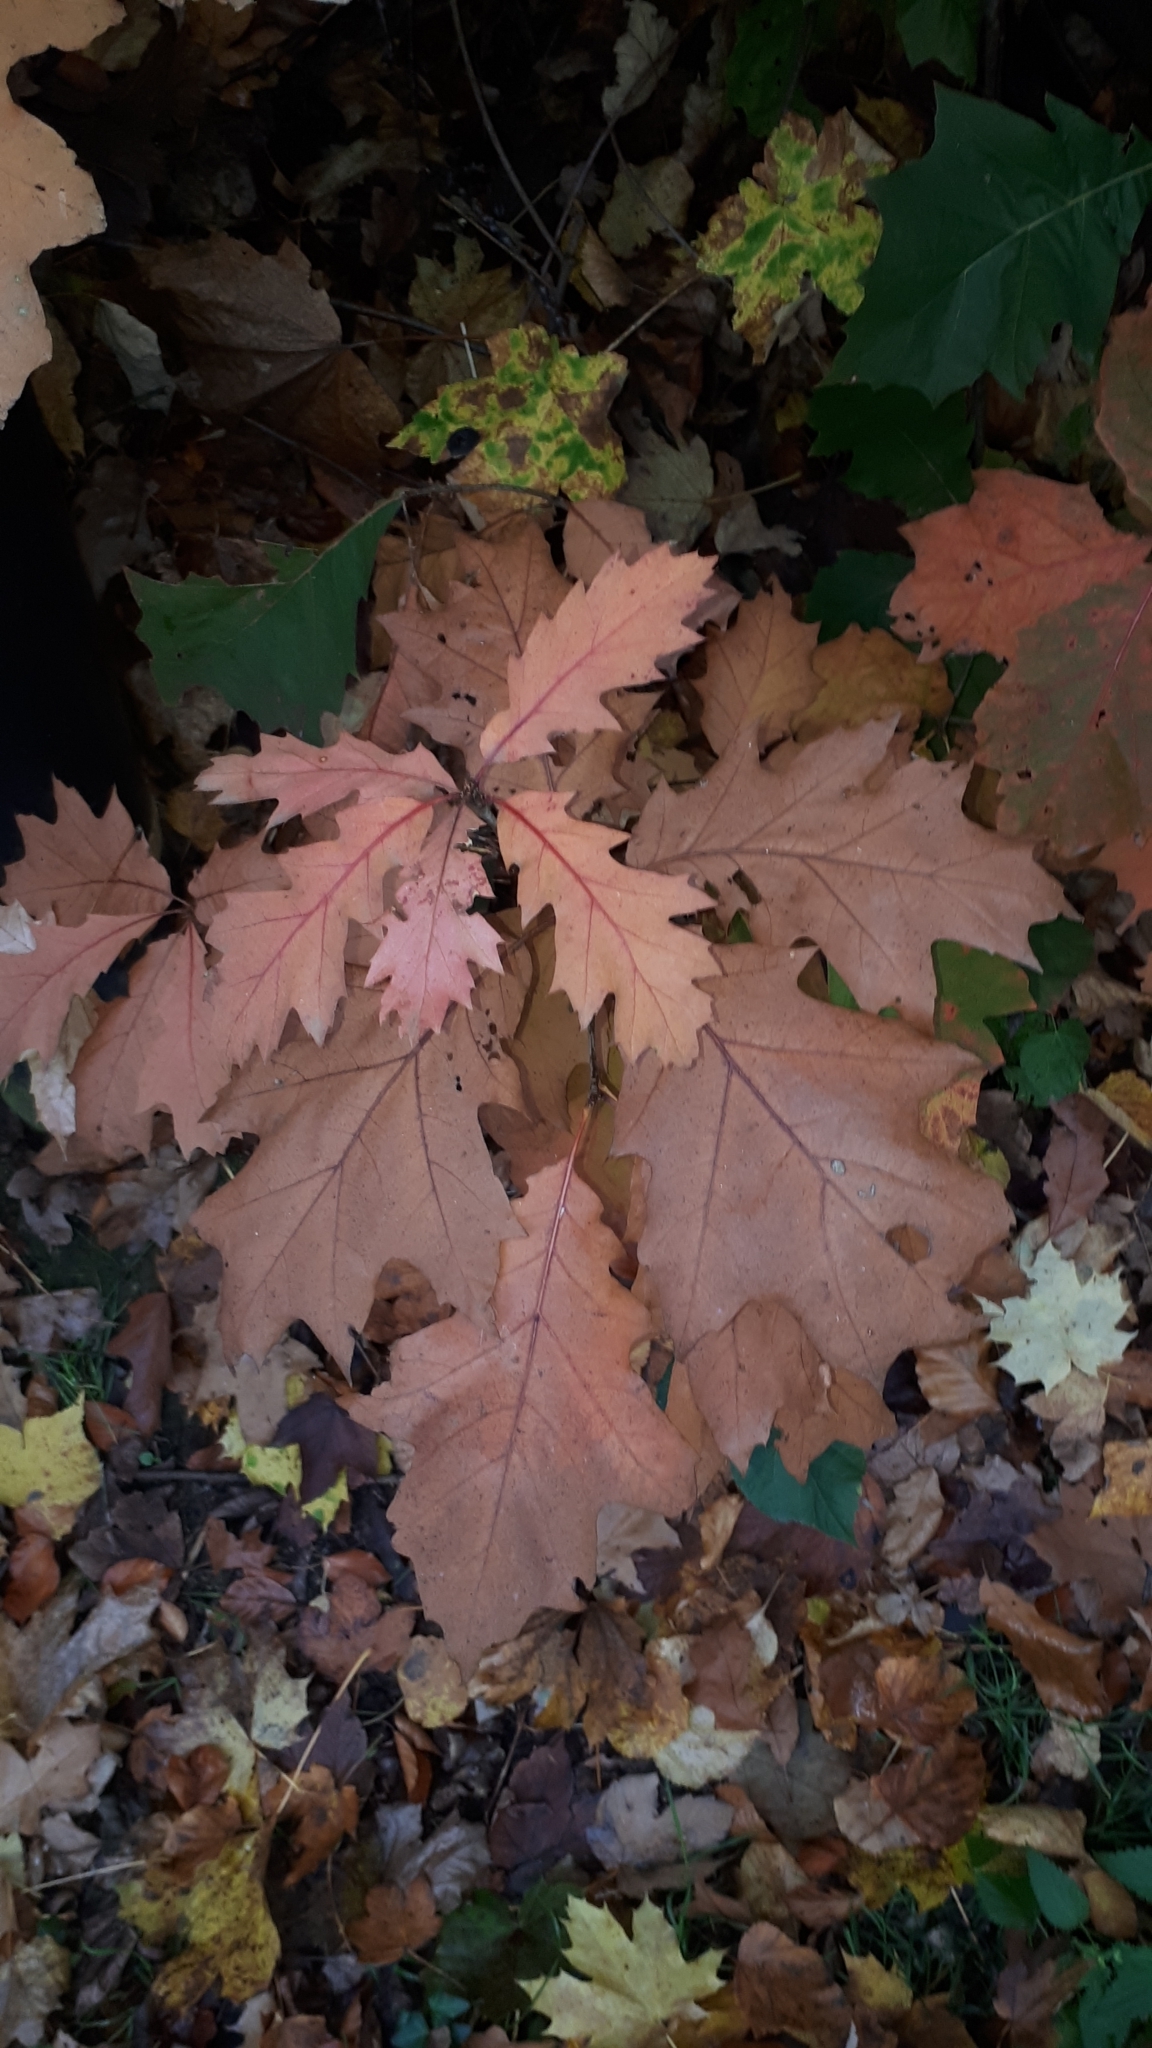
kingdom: Plantae
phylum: Tracheophyta
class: Magnoliopsida
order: Fagales
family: Fagaceae
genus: Quercus
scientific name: Quercus rubra
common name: Red oak
